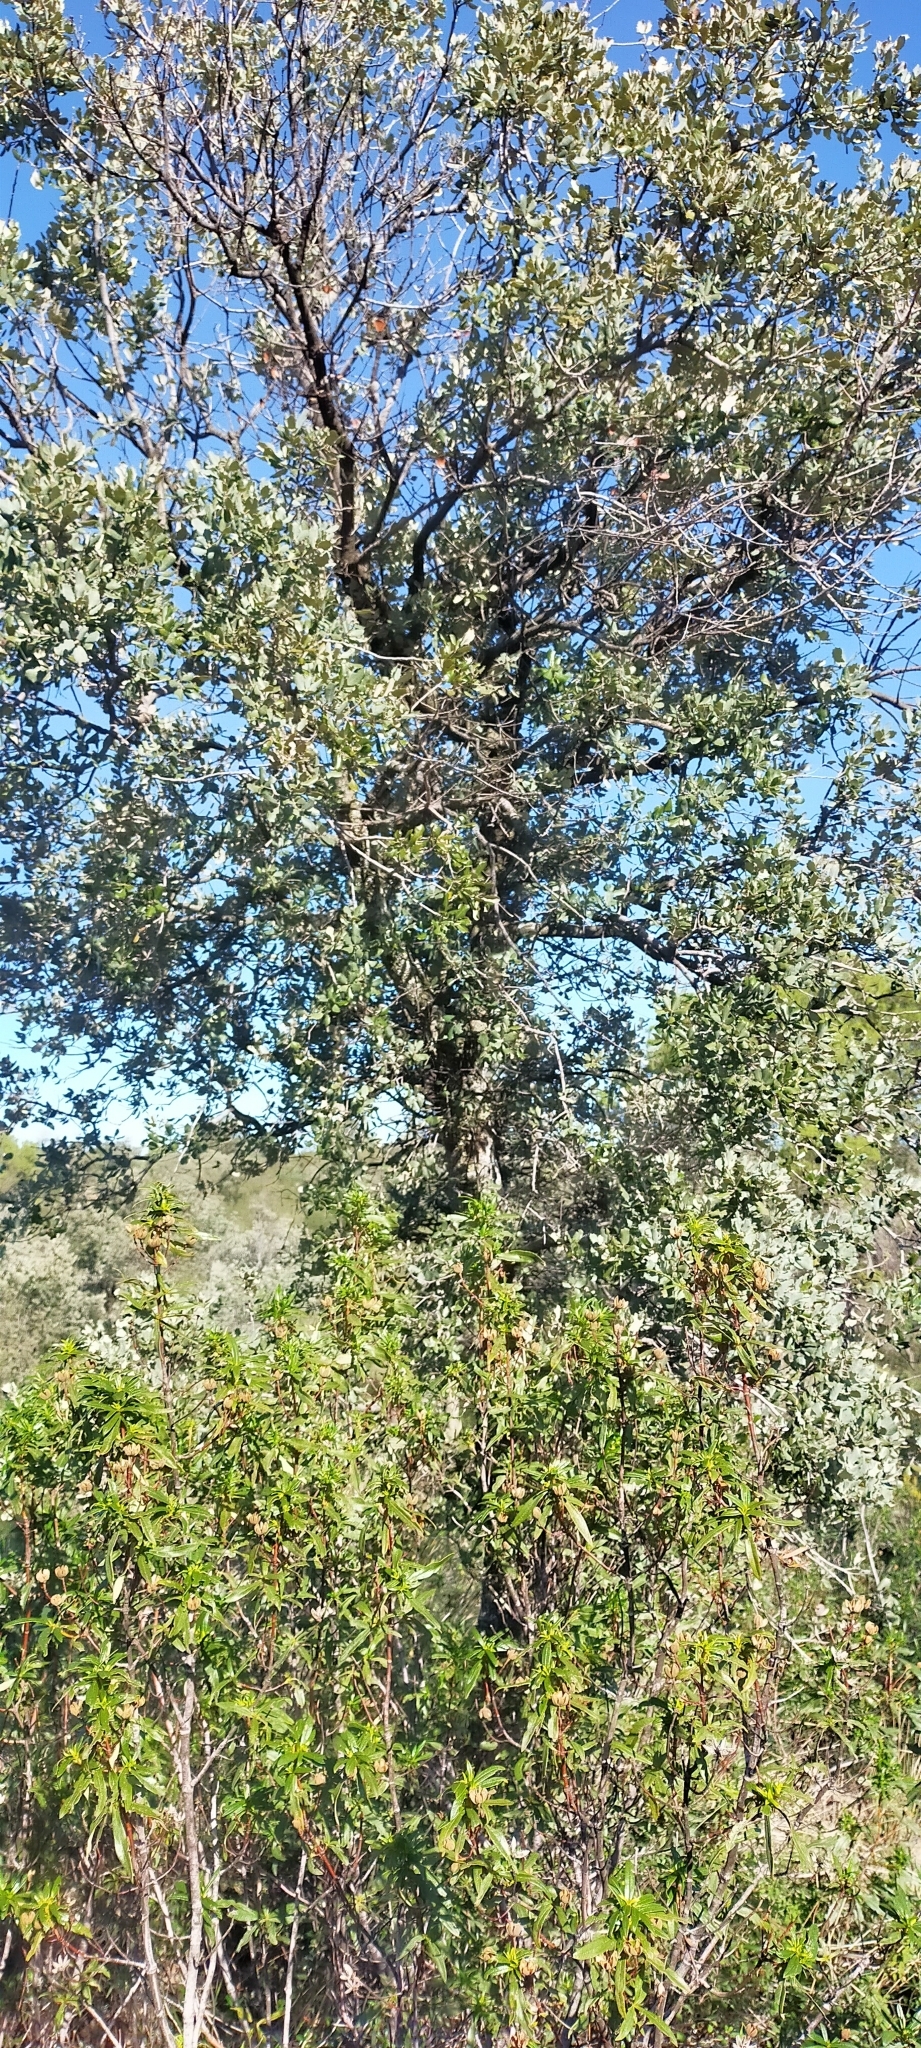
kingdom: Plantae
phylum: Tracheophyta
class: Magnoliopsida
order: Fagales
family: Fagaceae
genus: Quercus
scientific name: Quercus rotundifolia
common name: Holm oak
